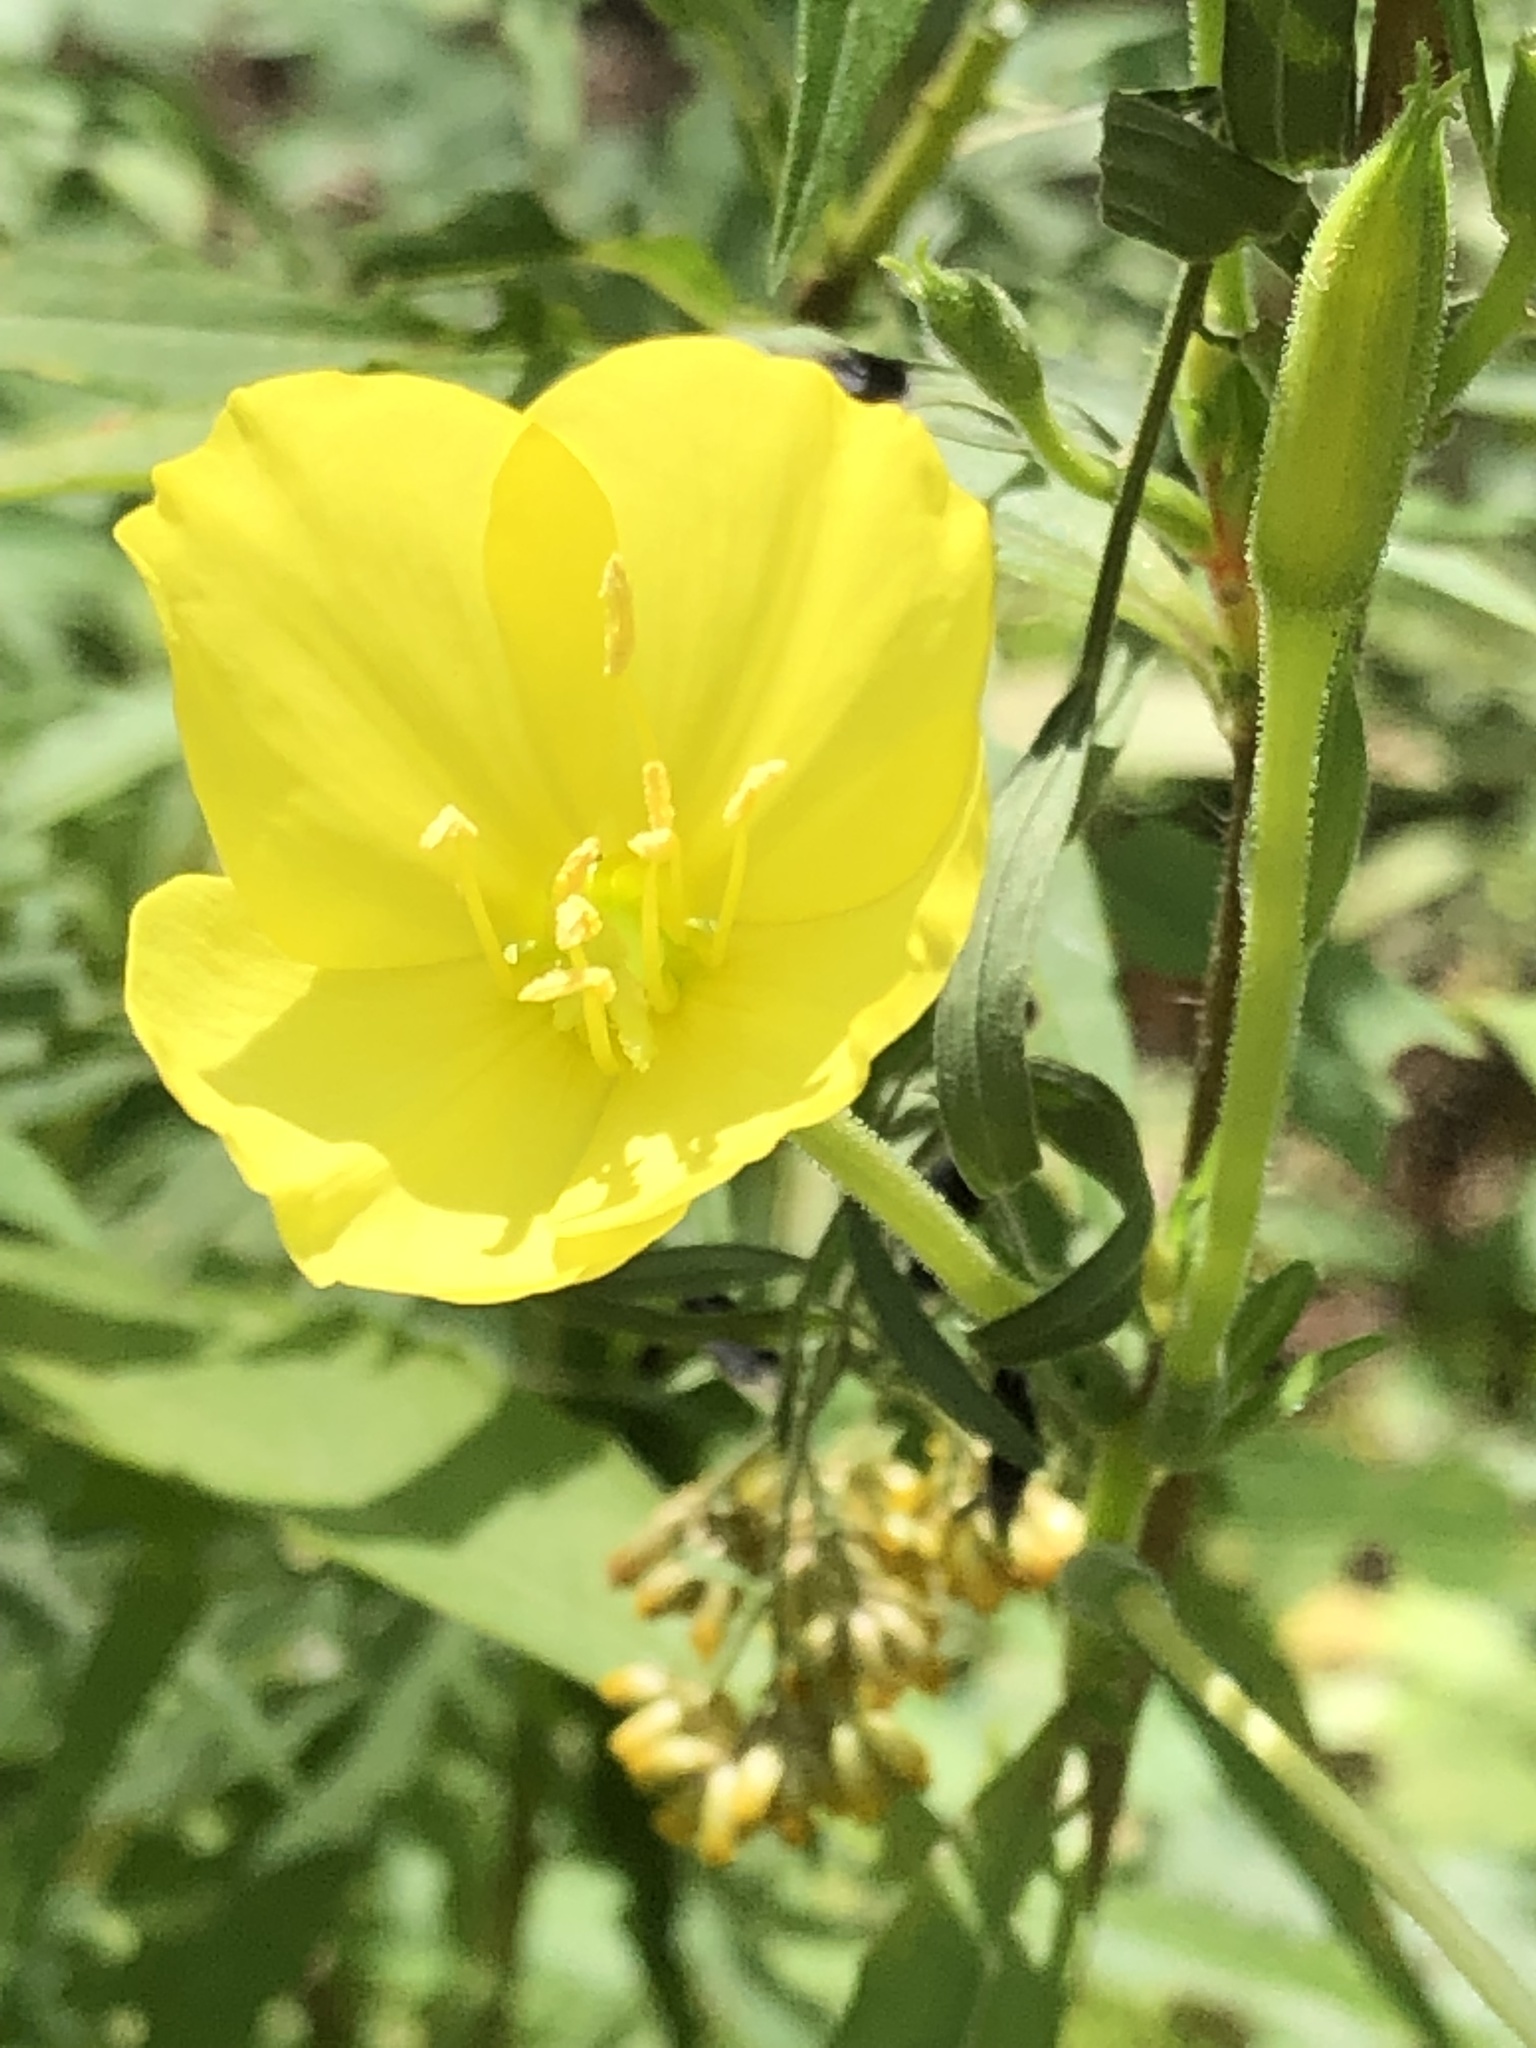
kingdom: Plantae
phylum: Tracheophyta
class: Magnoliopsida
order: Myrtales
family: Onagraceae
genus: Oenothera
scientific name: Oenothera parviflora
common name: Least evening-primrose
